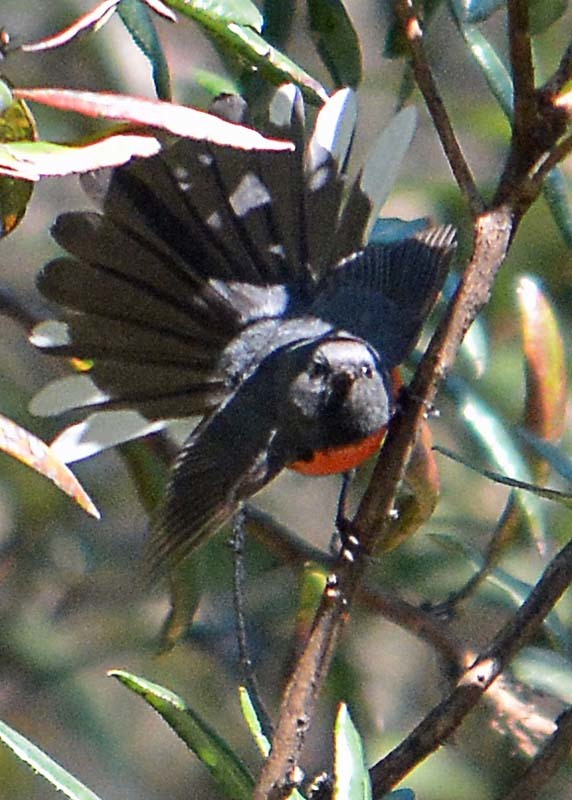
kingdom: Animalia
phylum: Chordata
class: Aves
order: Passeriformes
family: Parulidae
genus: Myioborus
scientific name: Myioborus miniatus
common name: Slate-throated redstart
